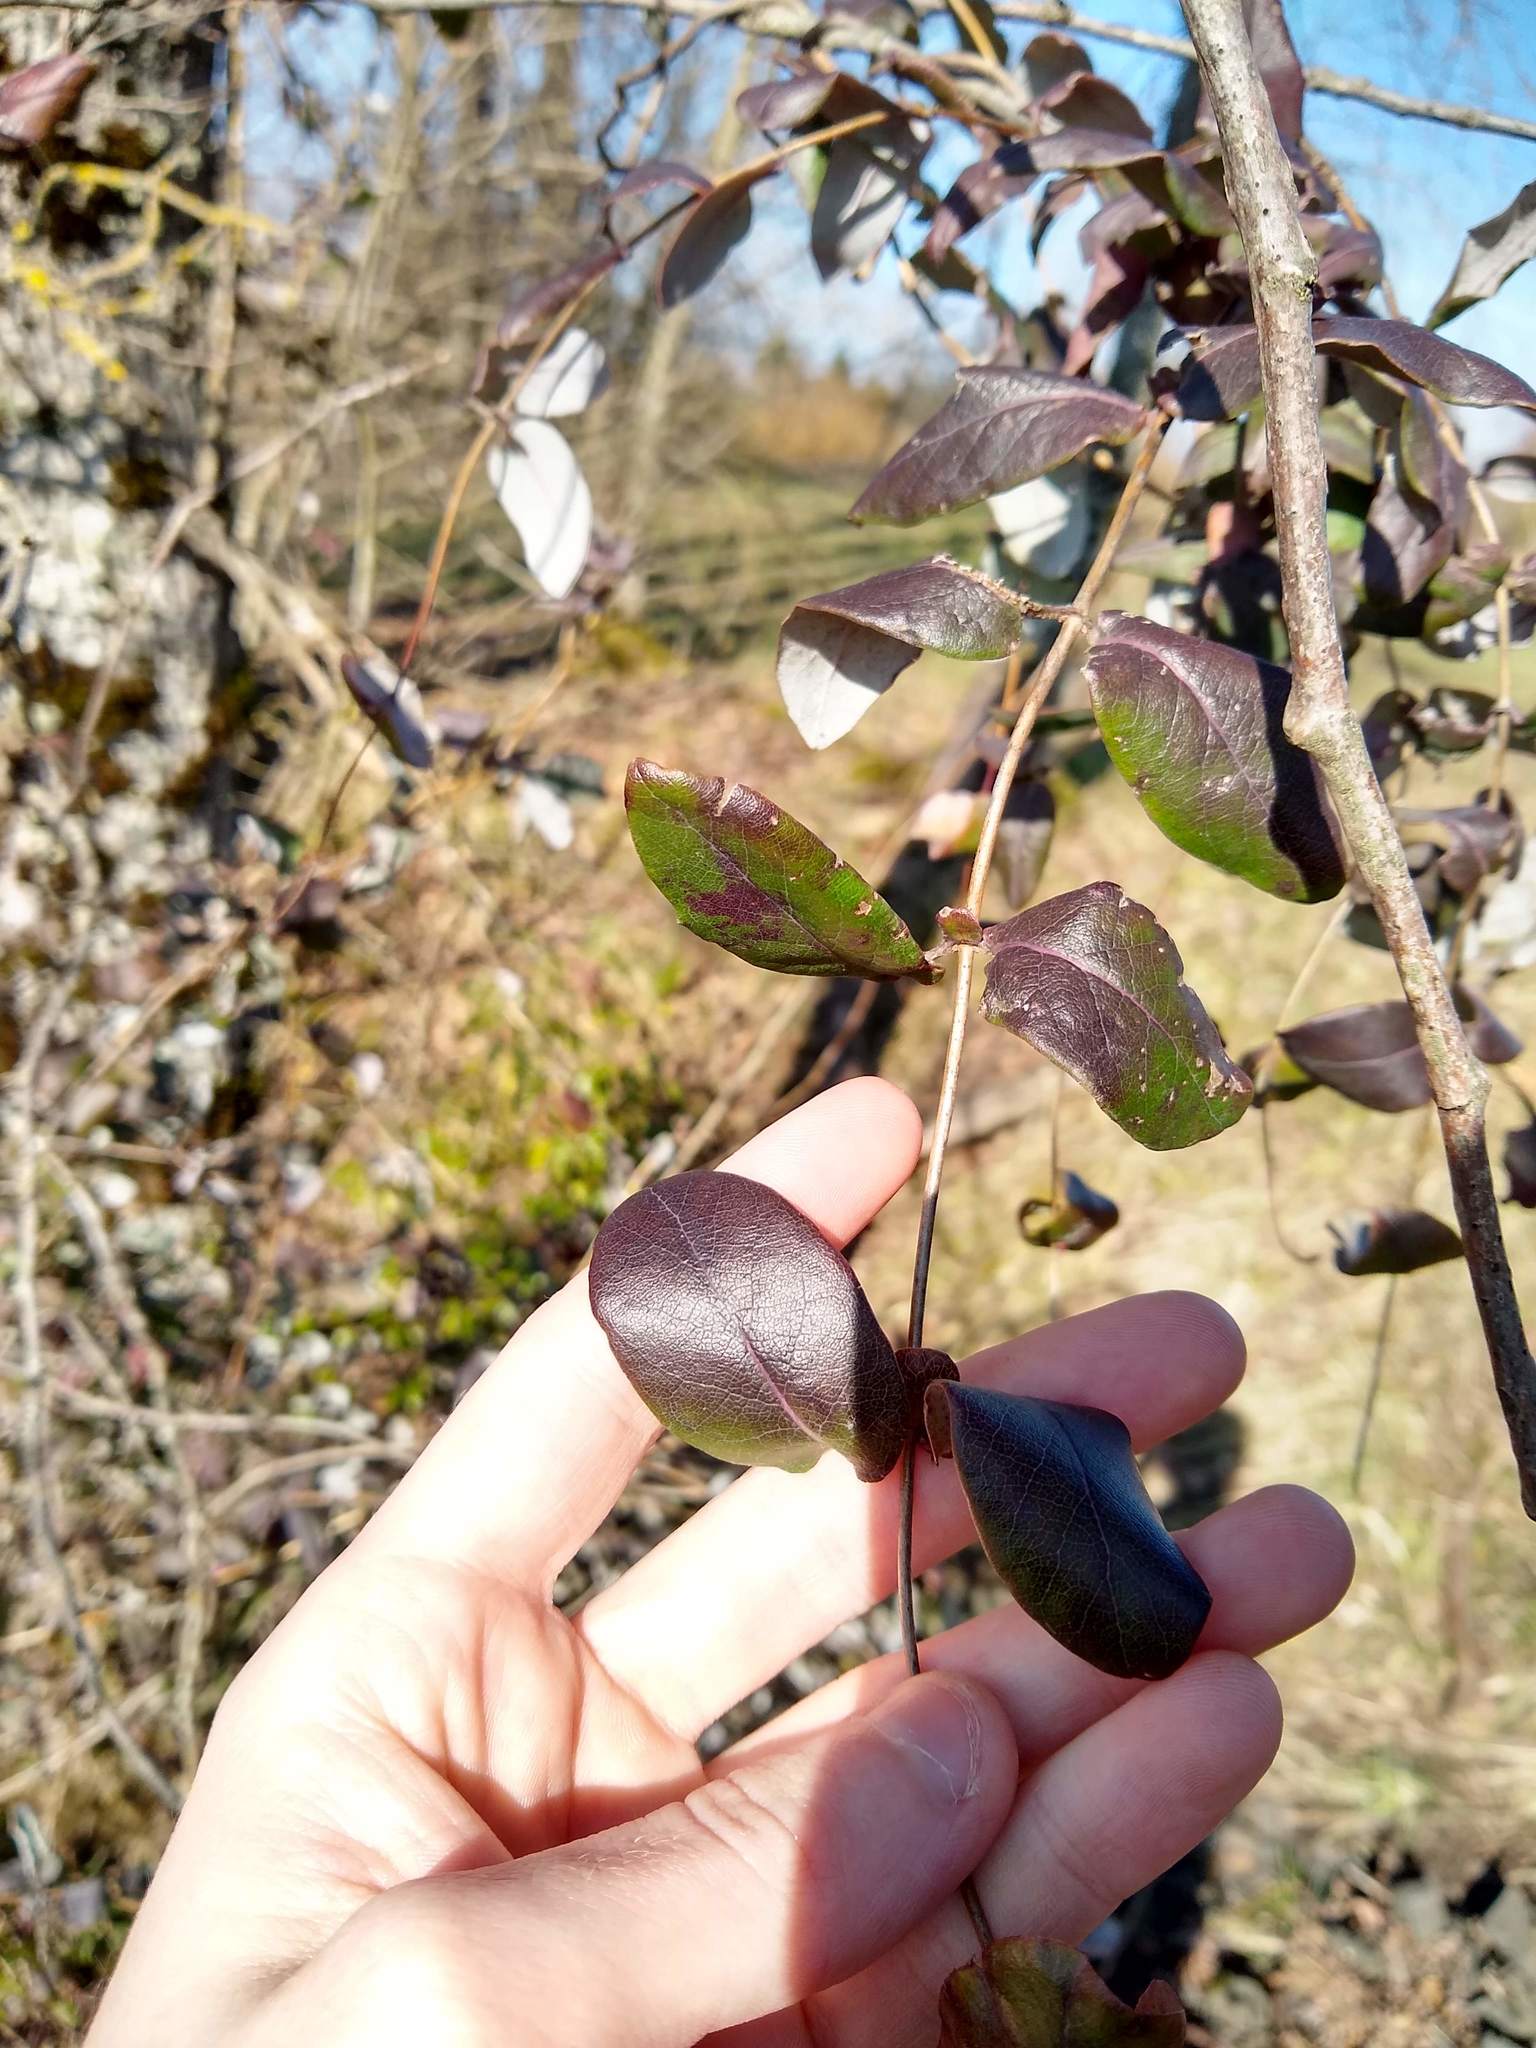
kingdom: Plantae
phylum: Tracheophyta
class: Magnoliopsida
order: Dipsacales
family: Caprifoliaceae
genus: Lonicera
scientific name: Lonicera hispidula
